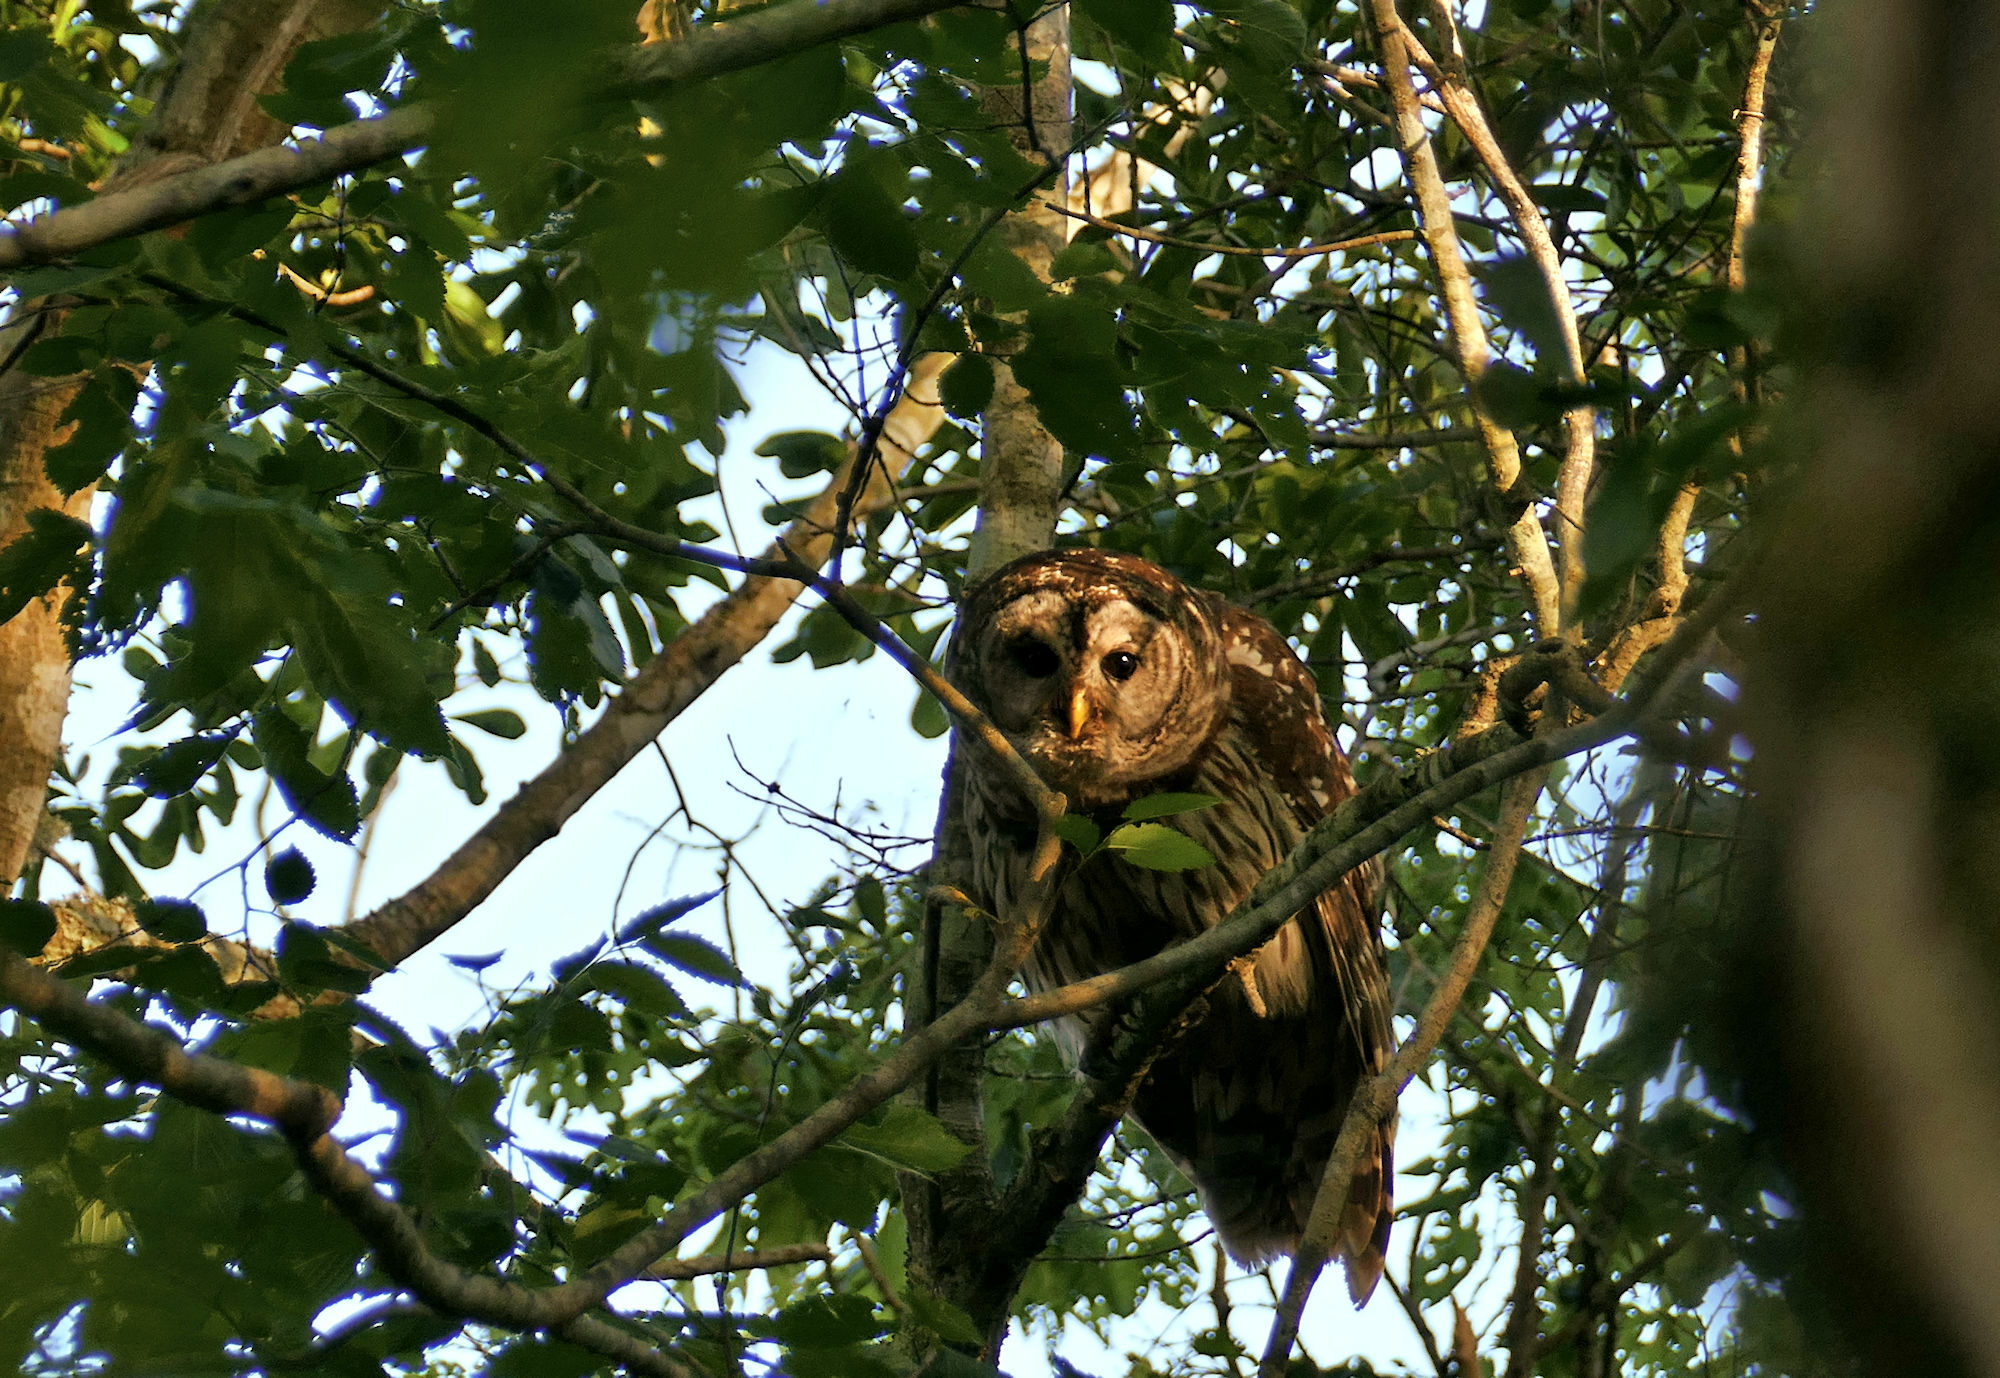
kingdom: Animalia
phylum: Chordata
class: Aves
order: Strigiformes
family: Strigidae
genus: Strix
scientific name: Strix varia
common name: Barred owl
